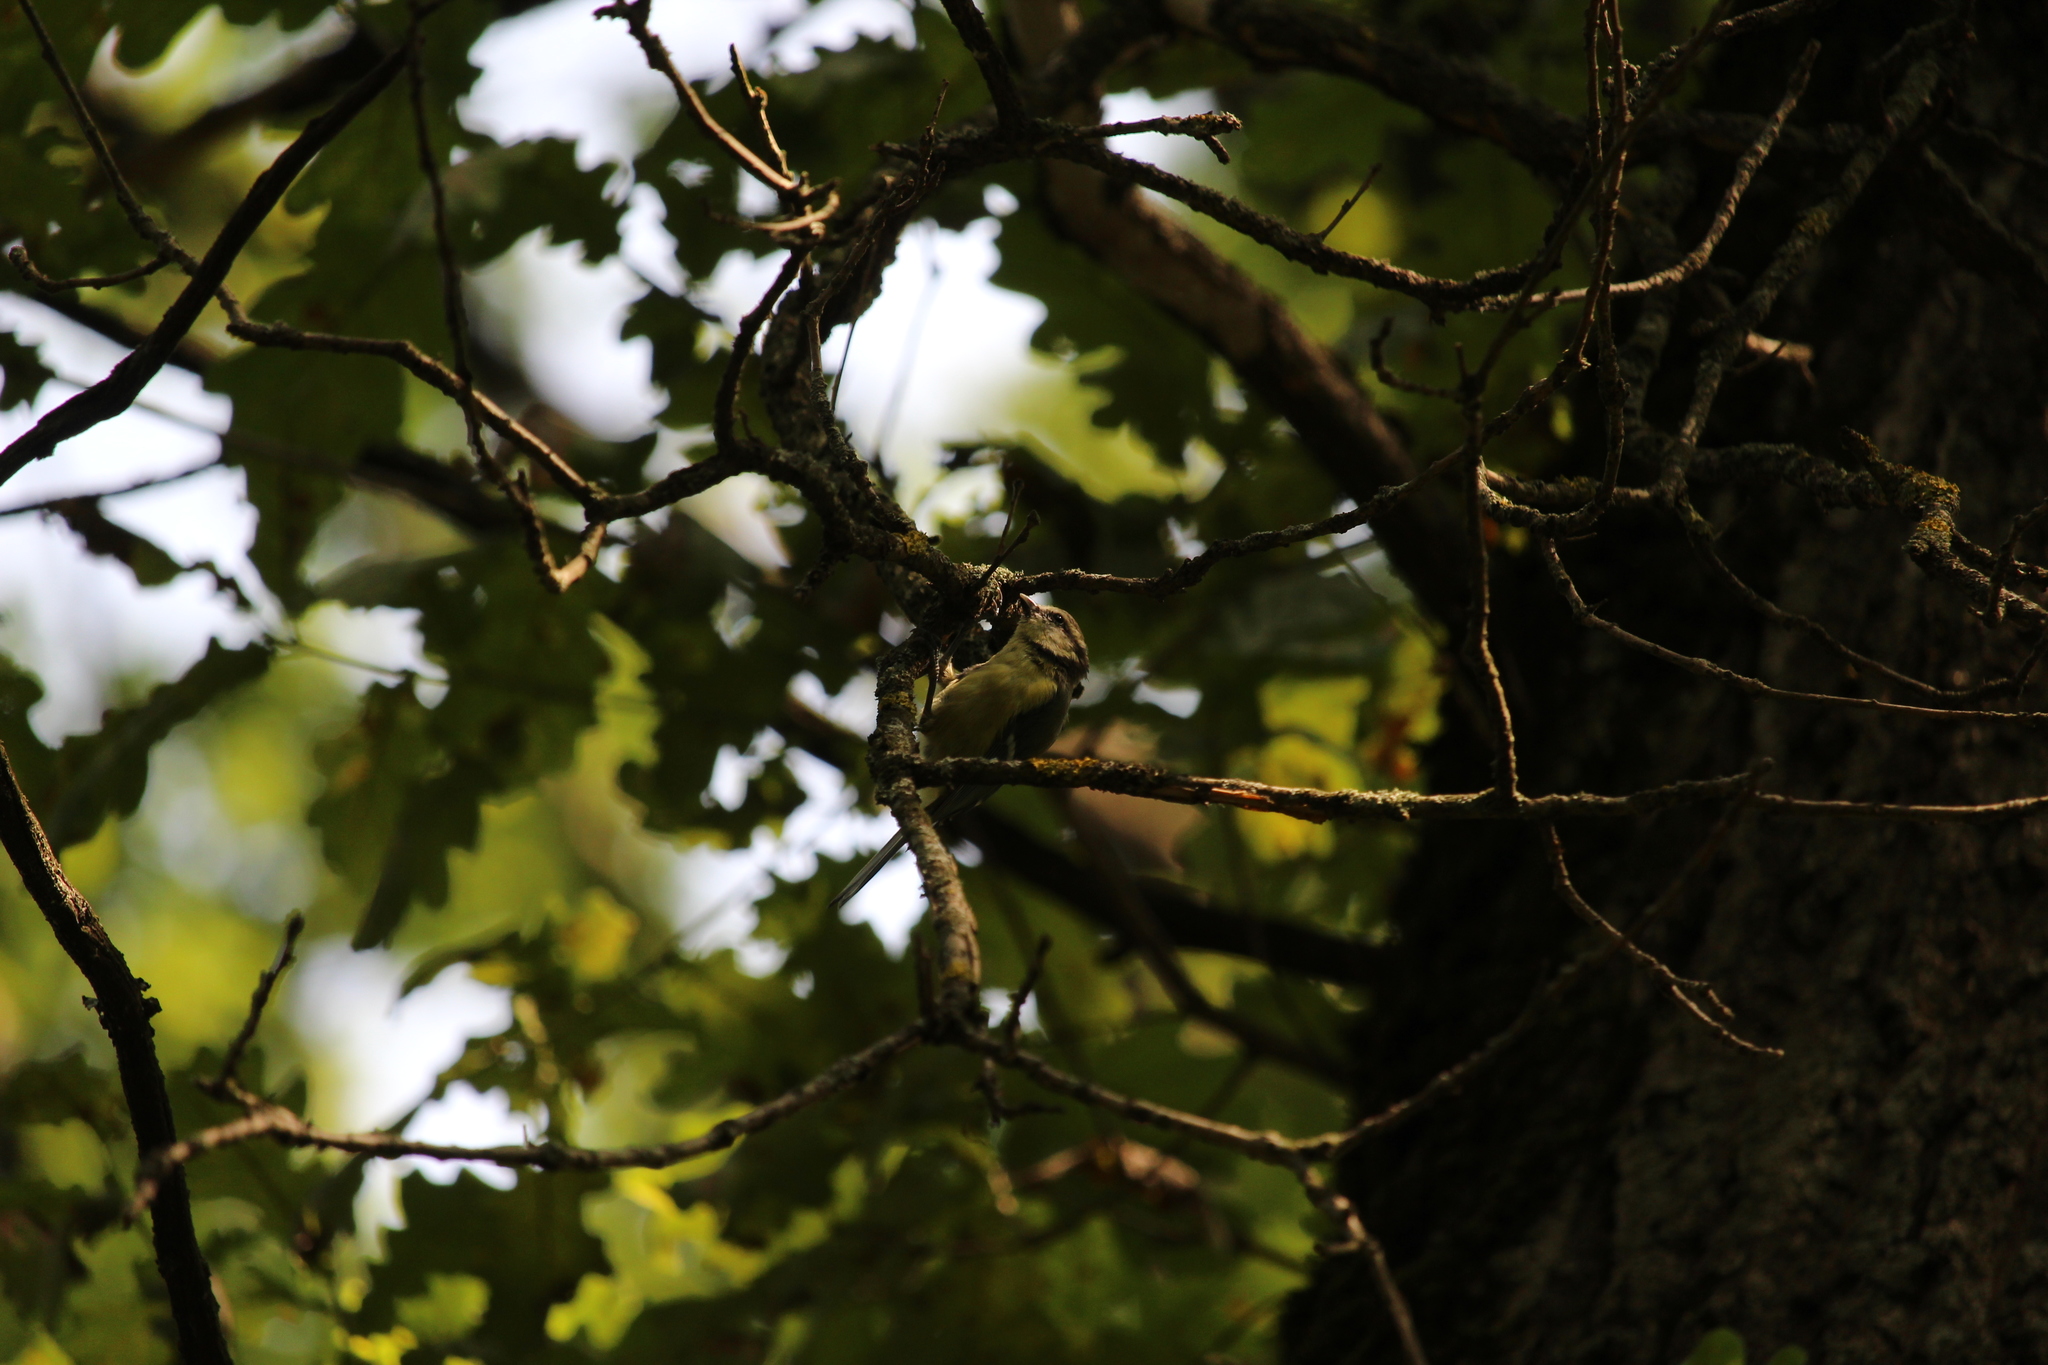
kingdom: Animalia
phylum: Chordata
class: Aves
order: Passeriformes
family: Paridae
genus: Cyanistes
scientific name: Cyanistes caeruleus
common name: Eurasian blue tit
